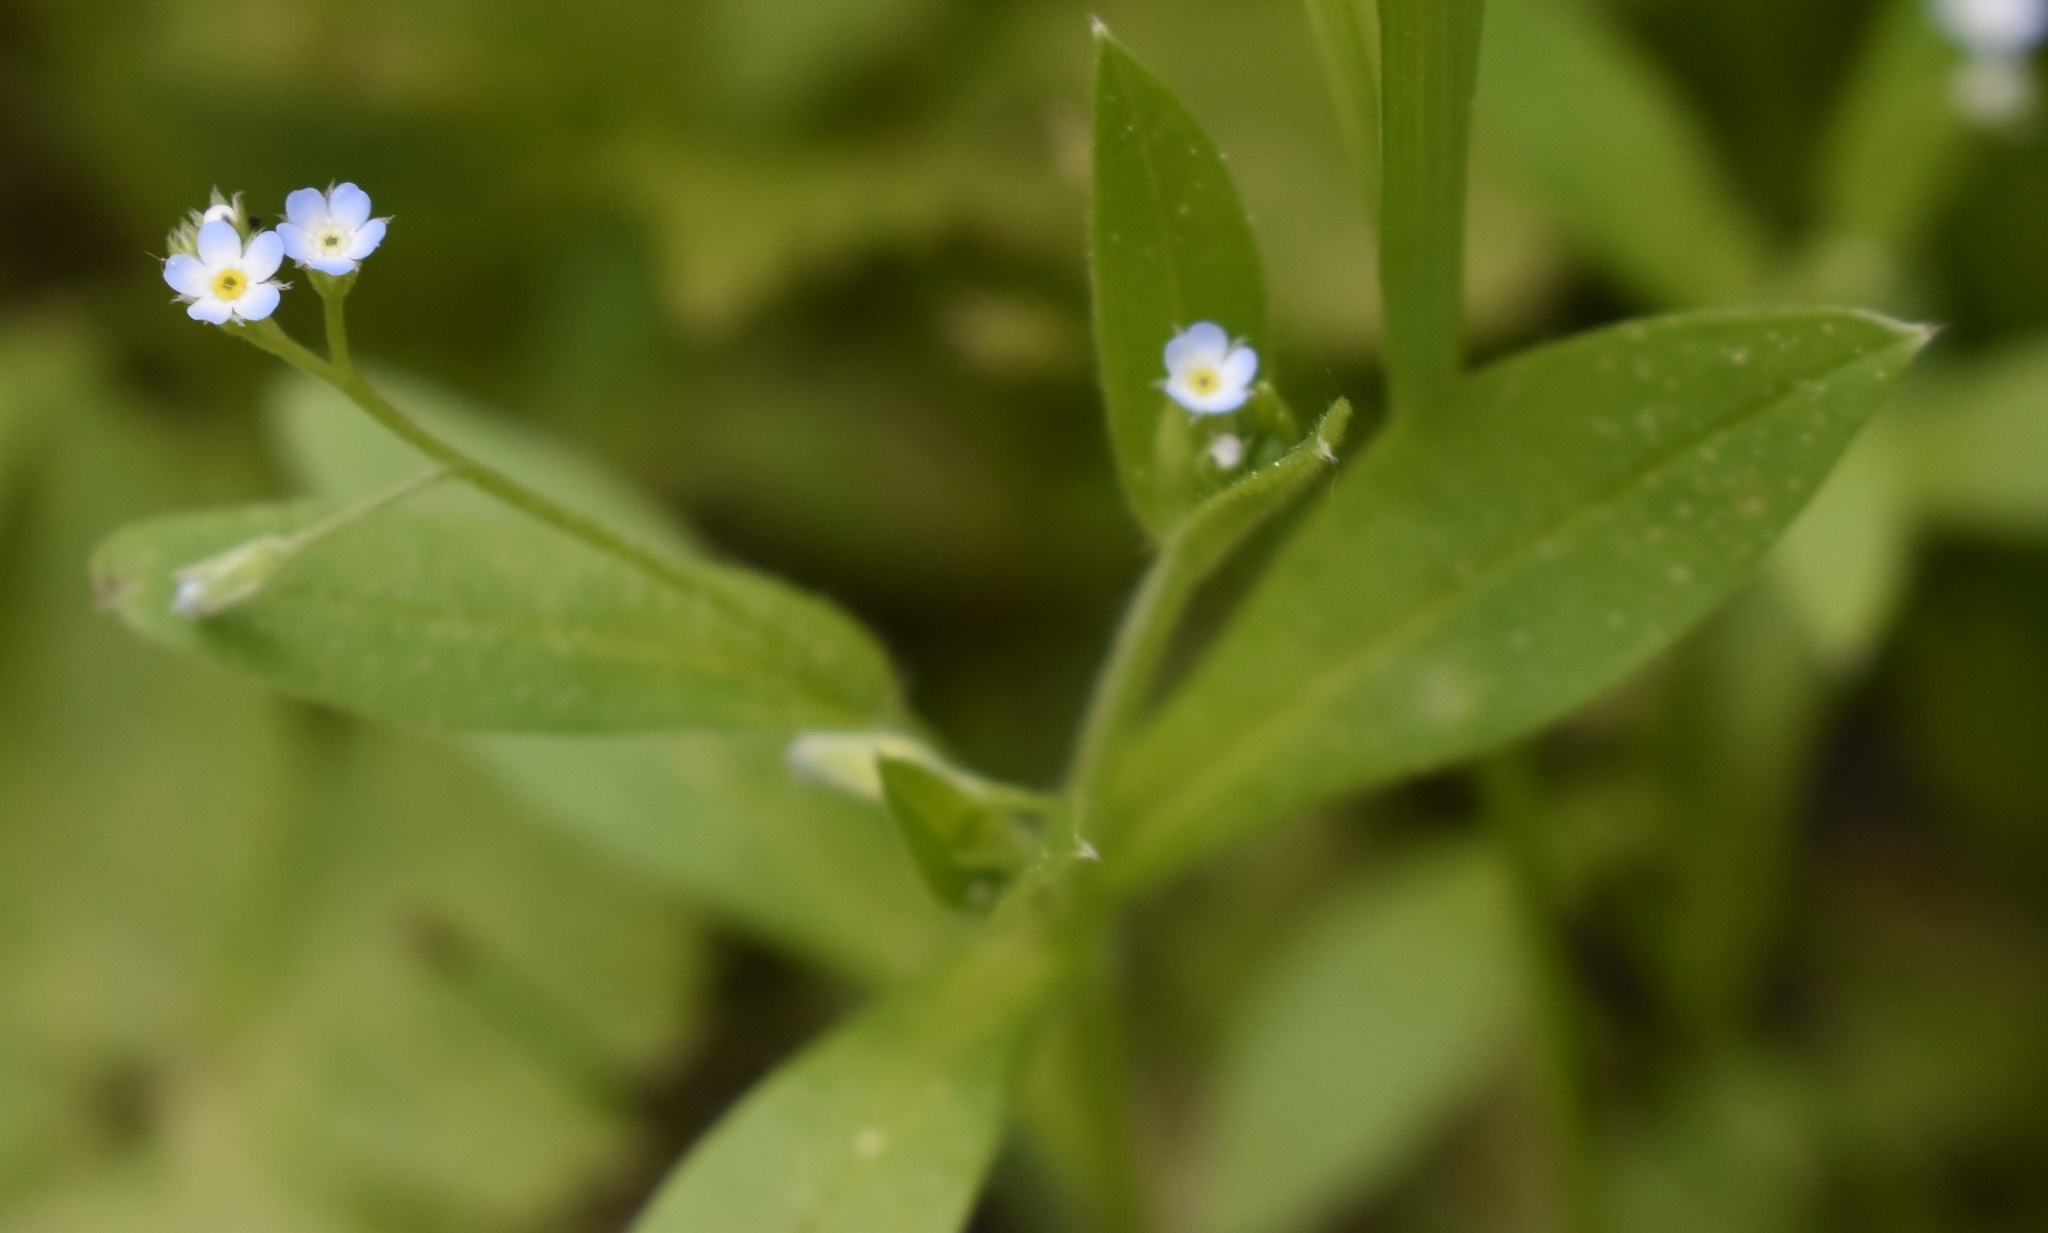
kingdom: Plantae
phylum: Tracheophyta
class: Magnoliopsida
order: Boraginales
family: Boraginaceae
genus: Myosotis
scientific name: Myosotis sparsiflora
